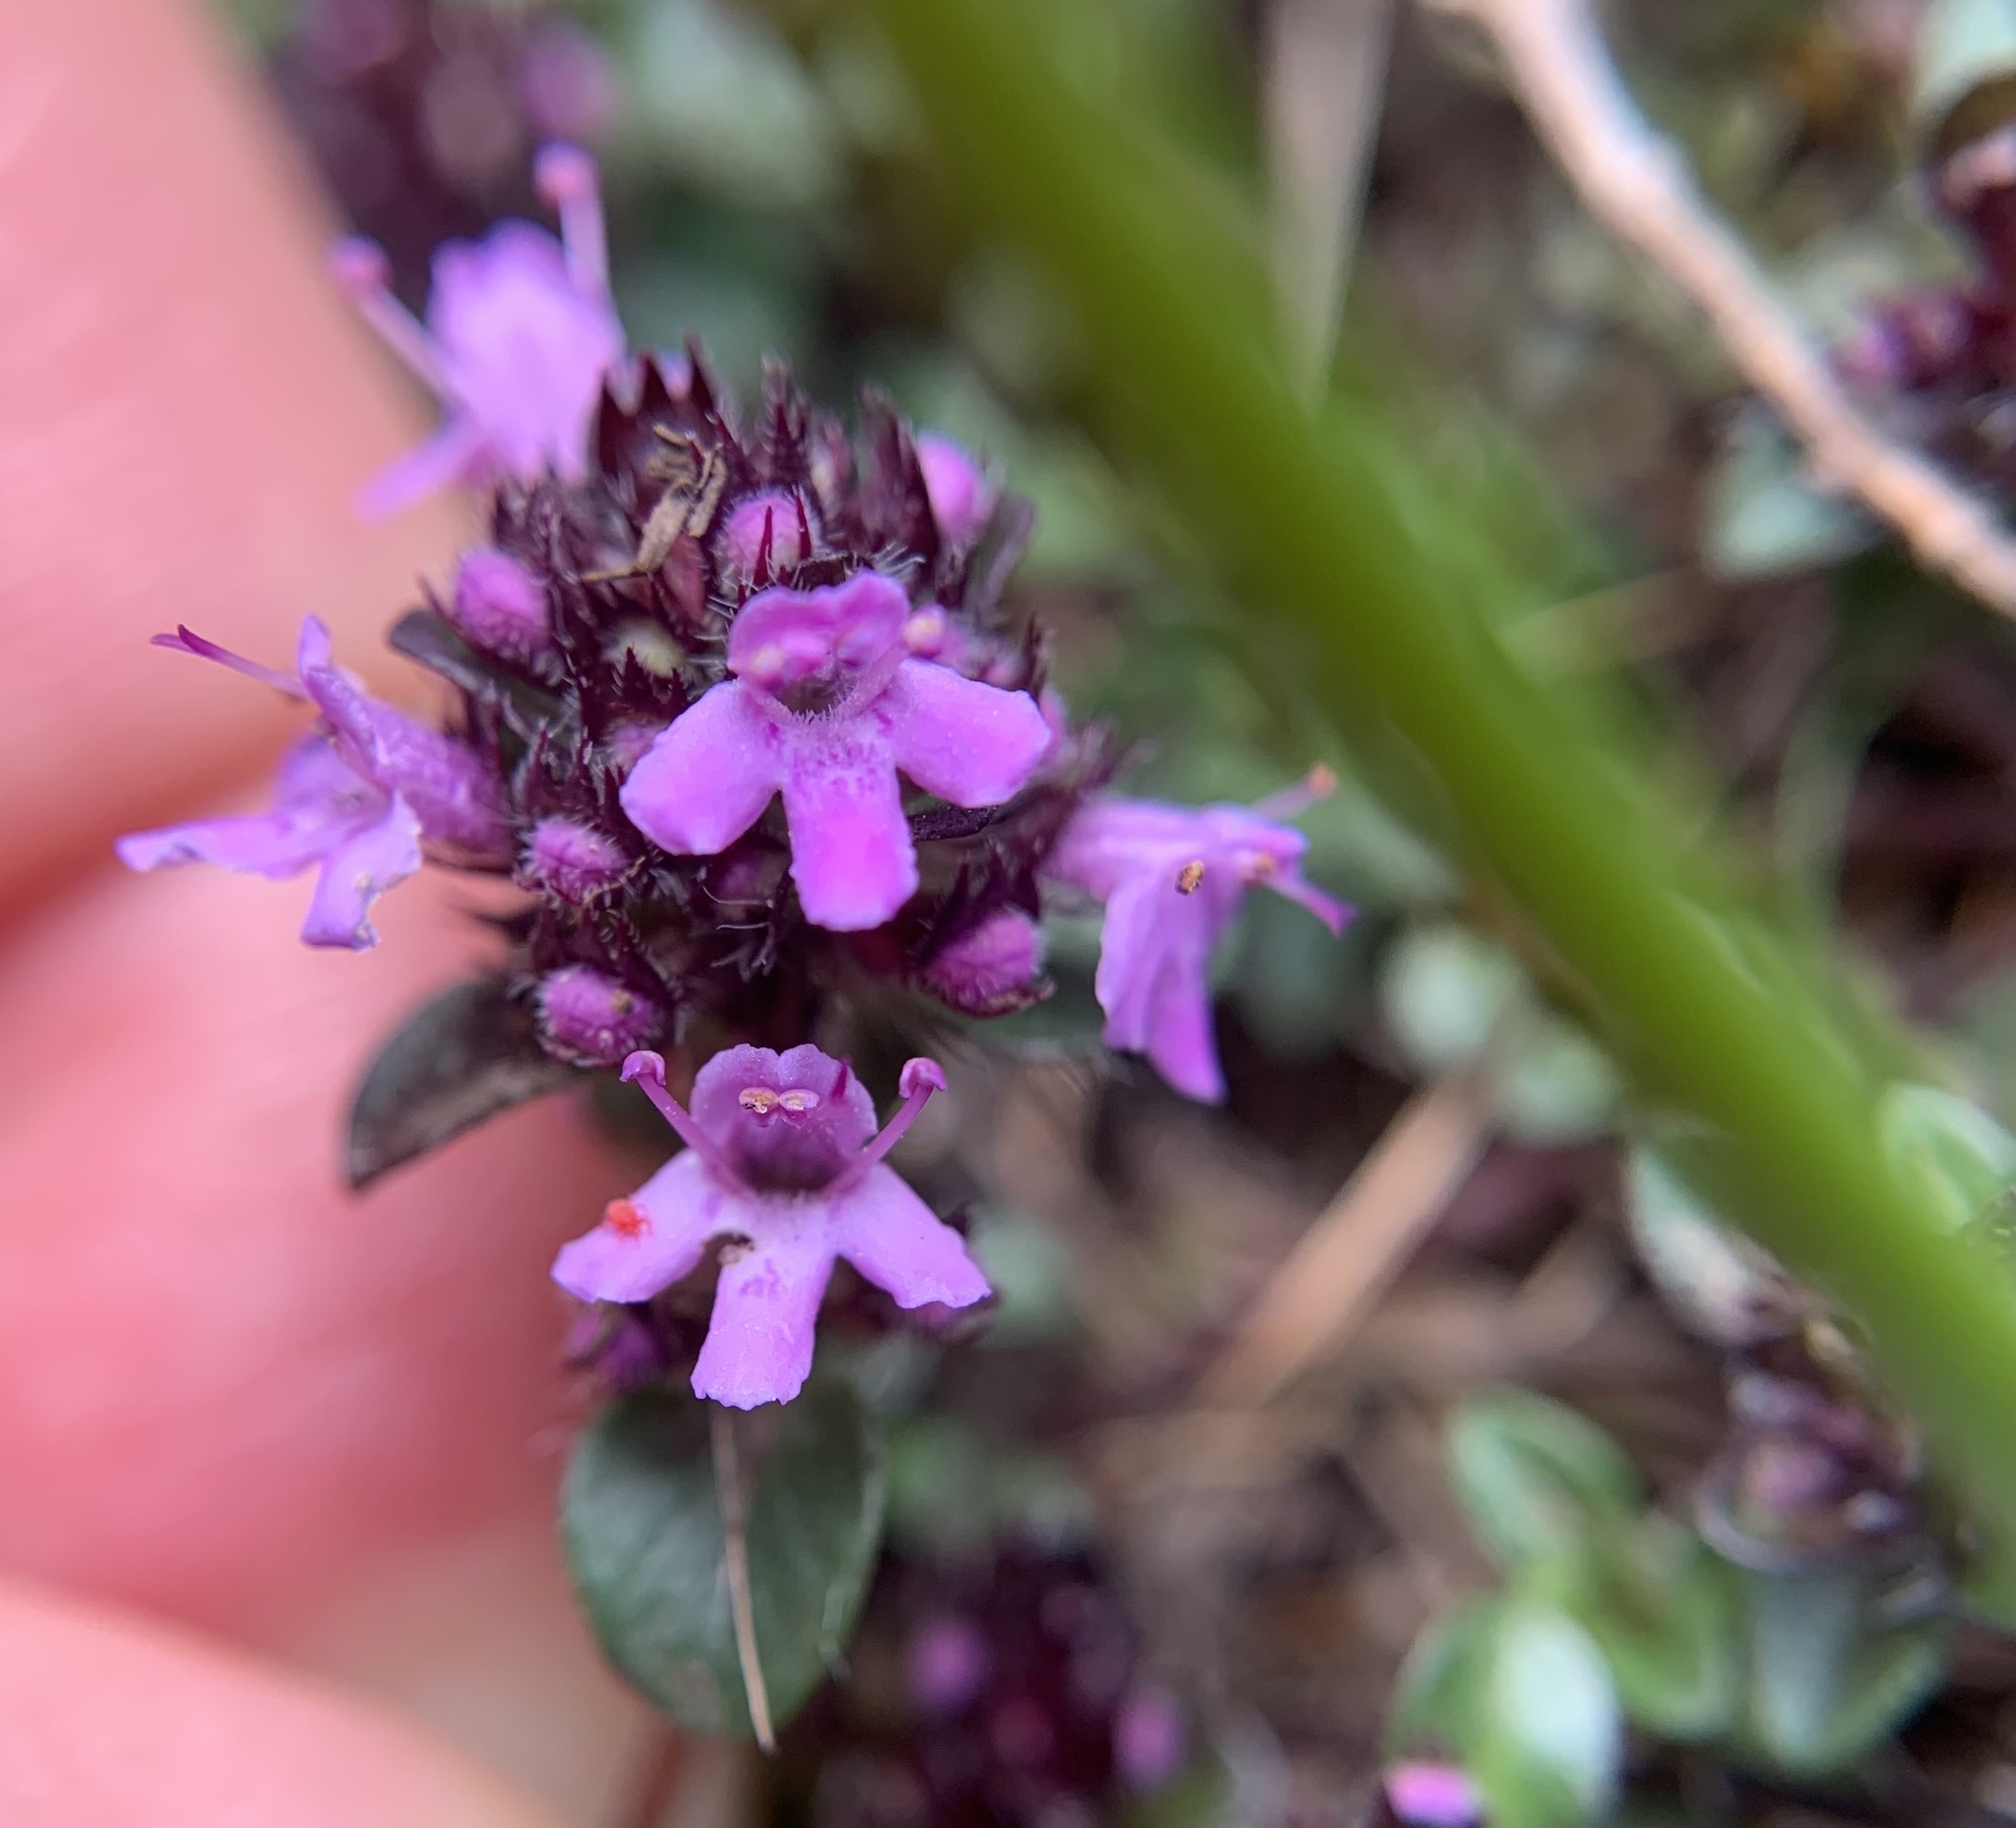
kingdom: Plantae
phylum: Tracheophyta
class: Magnoliopsida
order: Lamiales
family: Lamiaceae
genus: Thymus
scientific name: Thymus praecox
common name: Wild thyme
